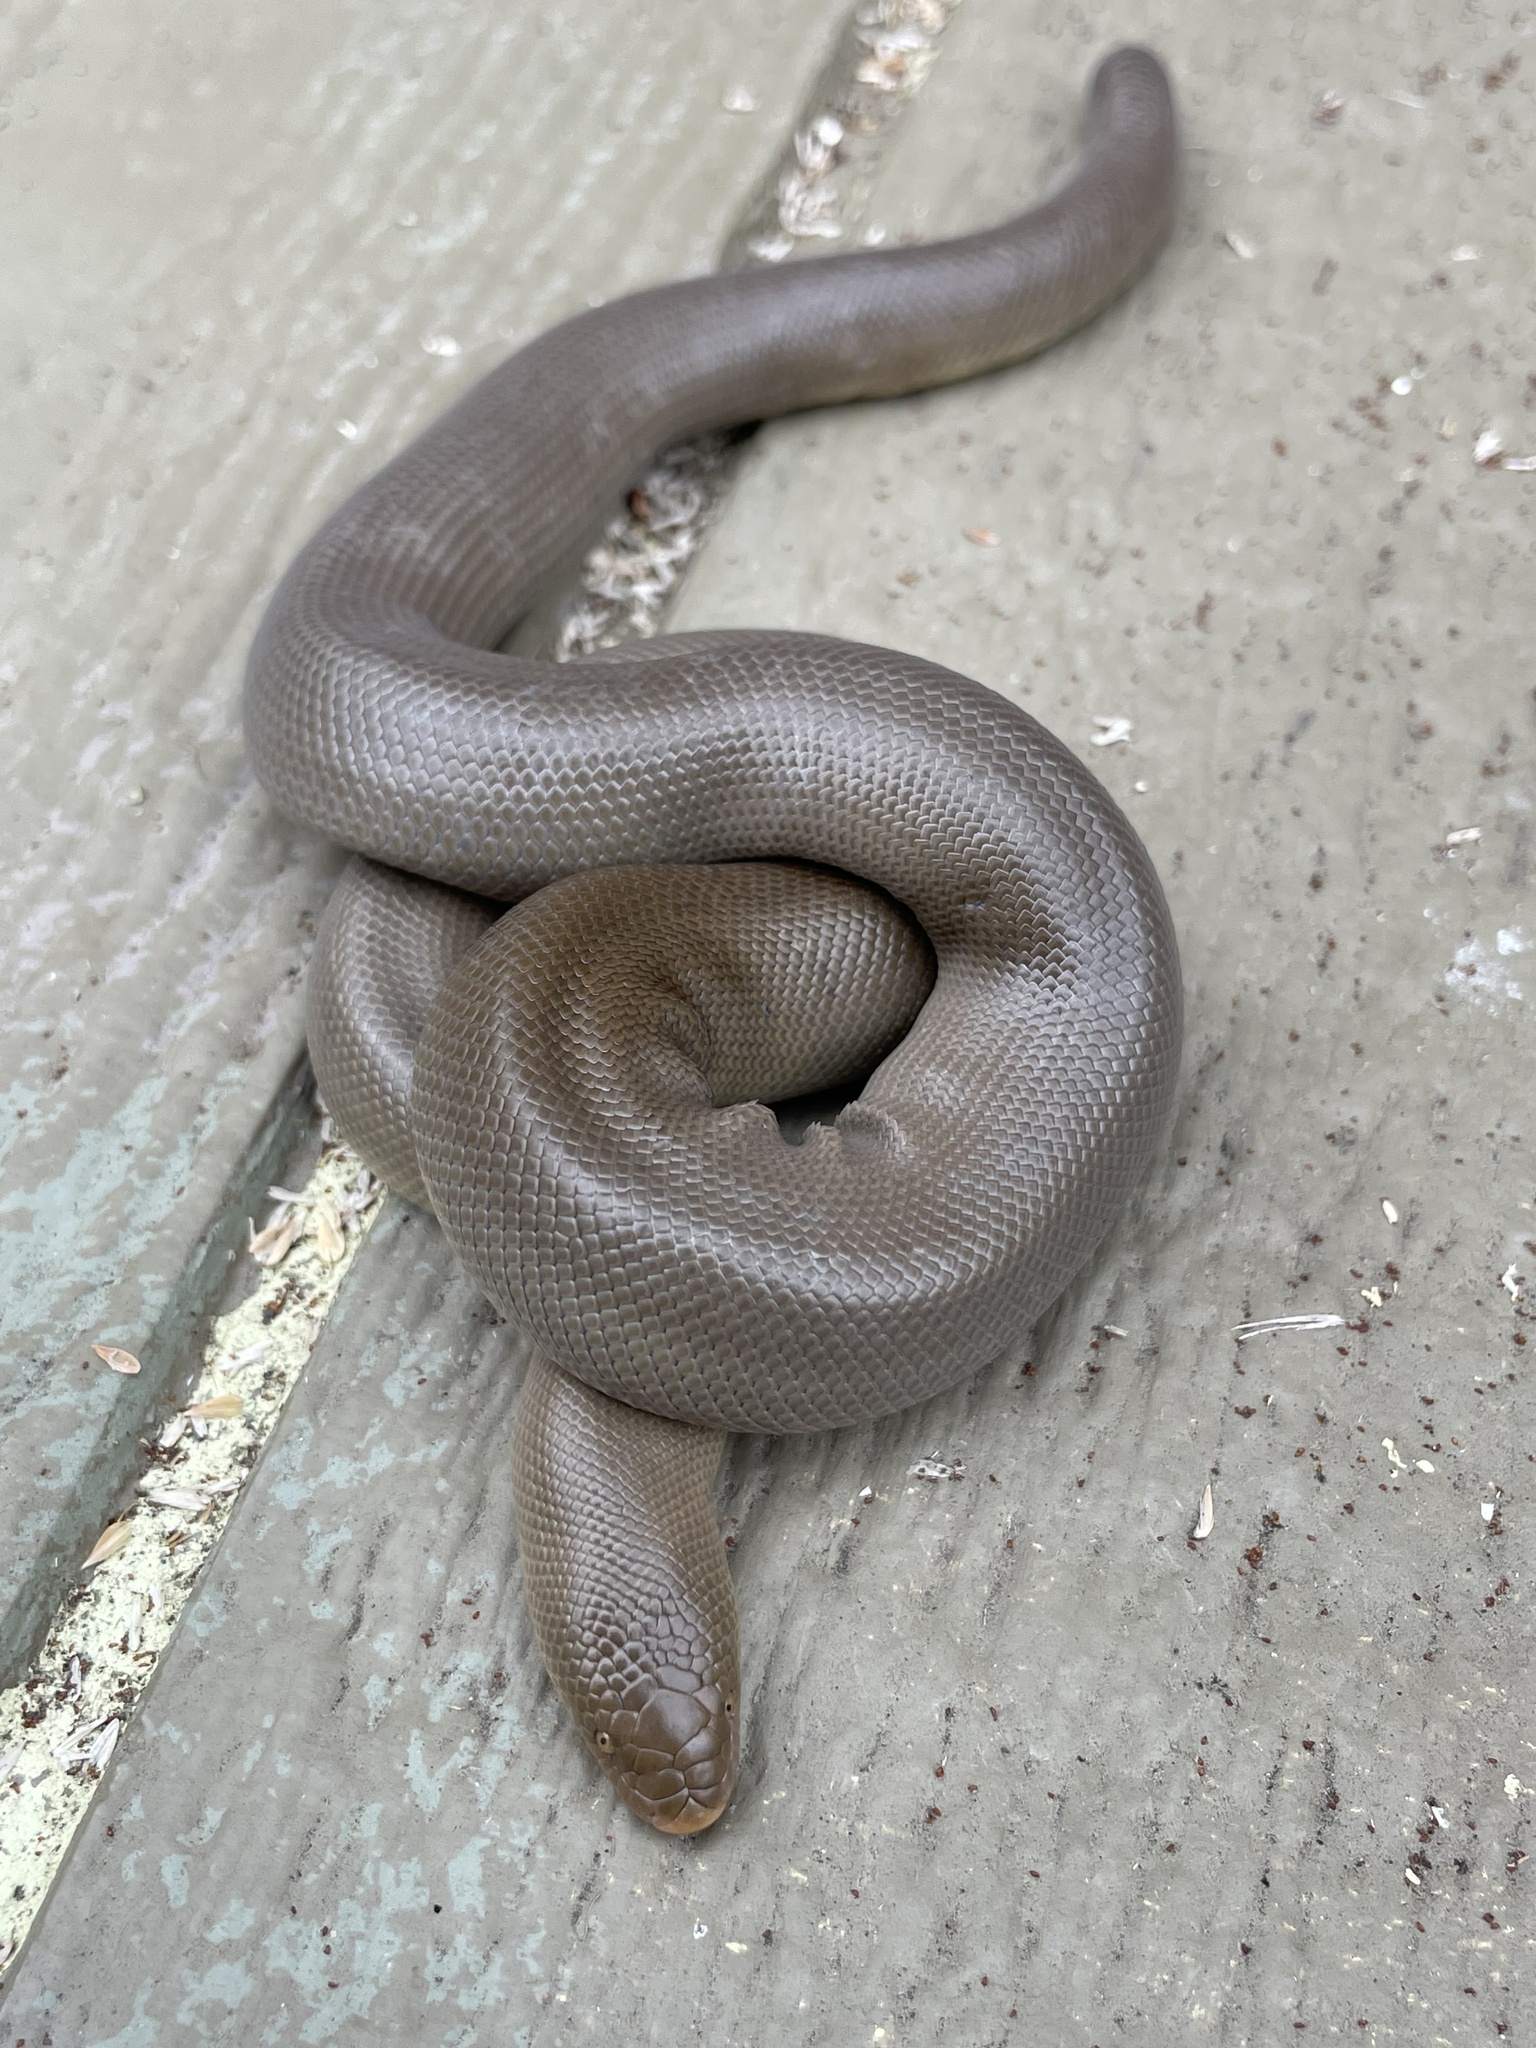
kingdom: Animalia
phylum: Chordata
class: Squamata
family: Boidae
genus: Charina
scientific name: Charina bottae
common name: Northern rubber boa
